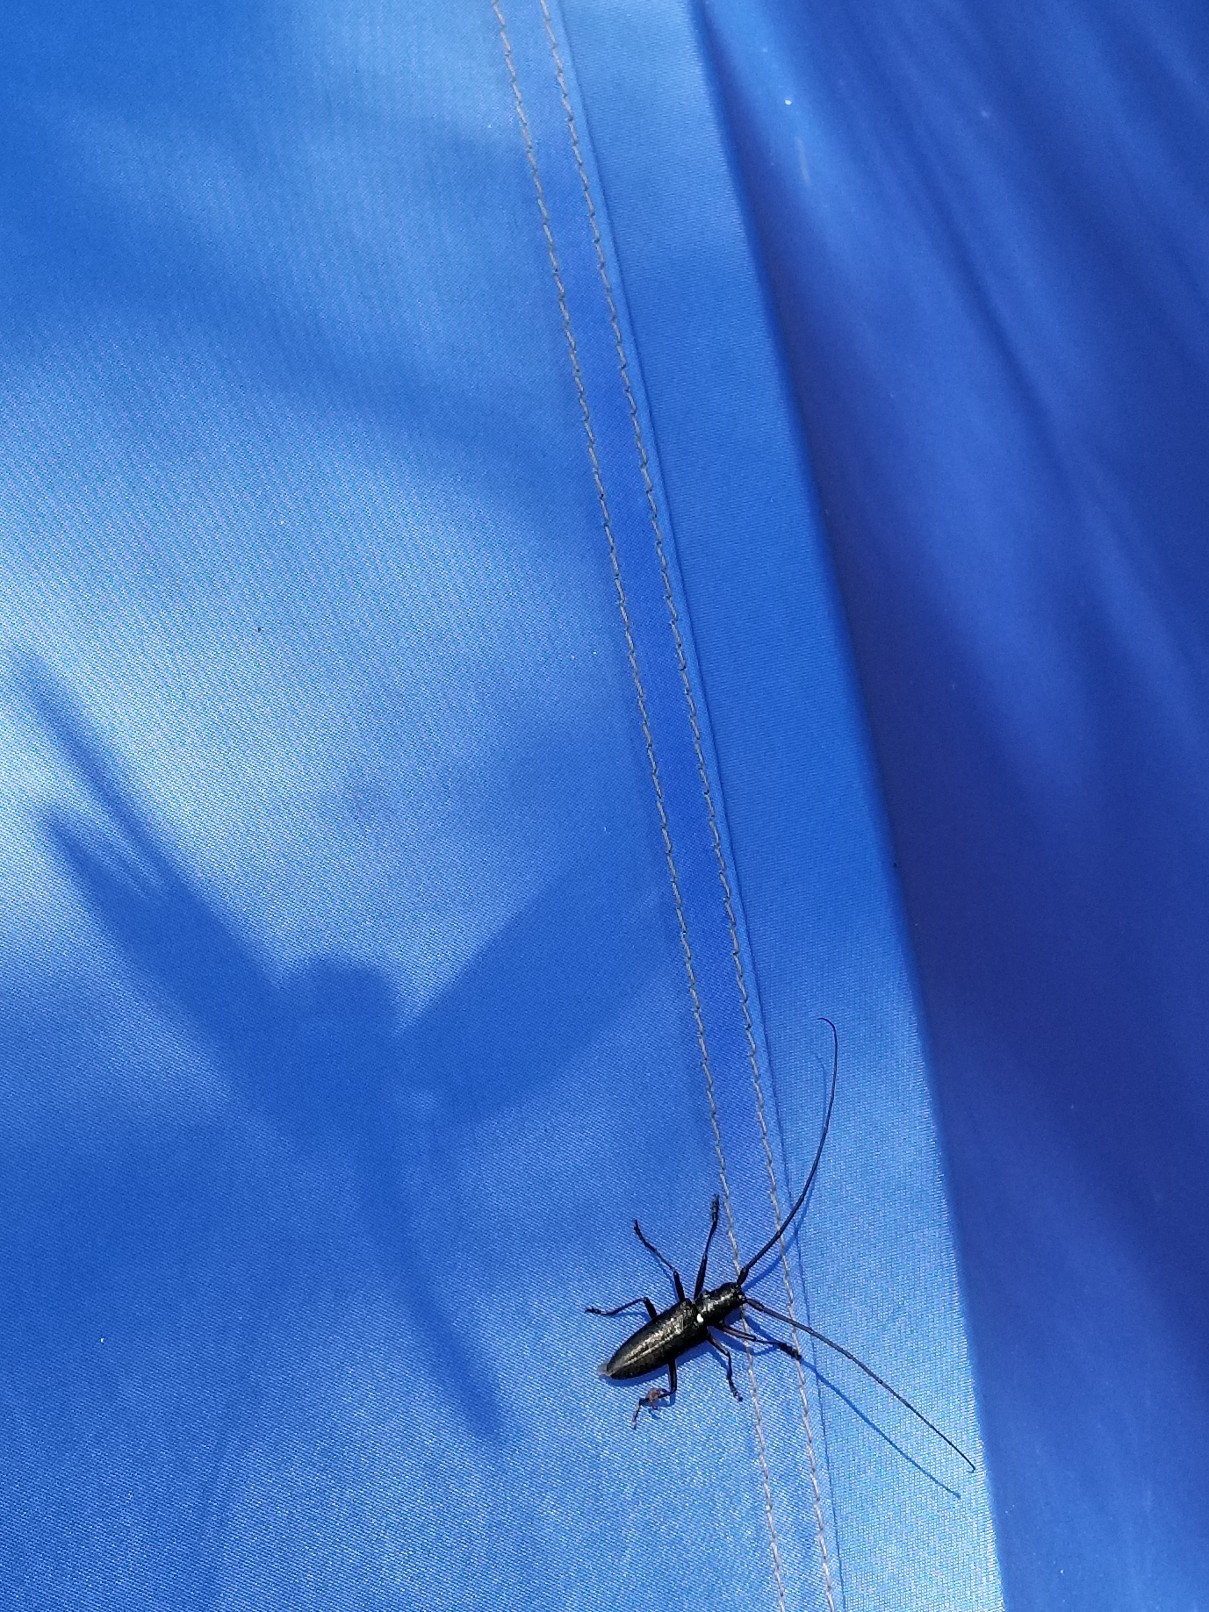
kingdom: Animalia
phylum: Arthropoda
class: Insecta
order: Coleoptera
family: Cerambycidae
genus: Monochamus
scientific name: Monochamus scutellatus
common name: White-spotted sawyer beetle
